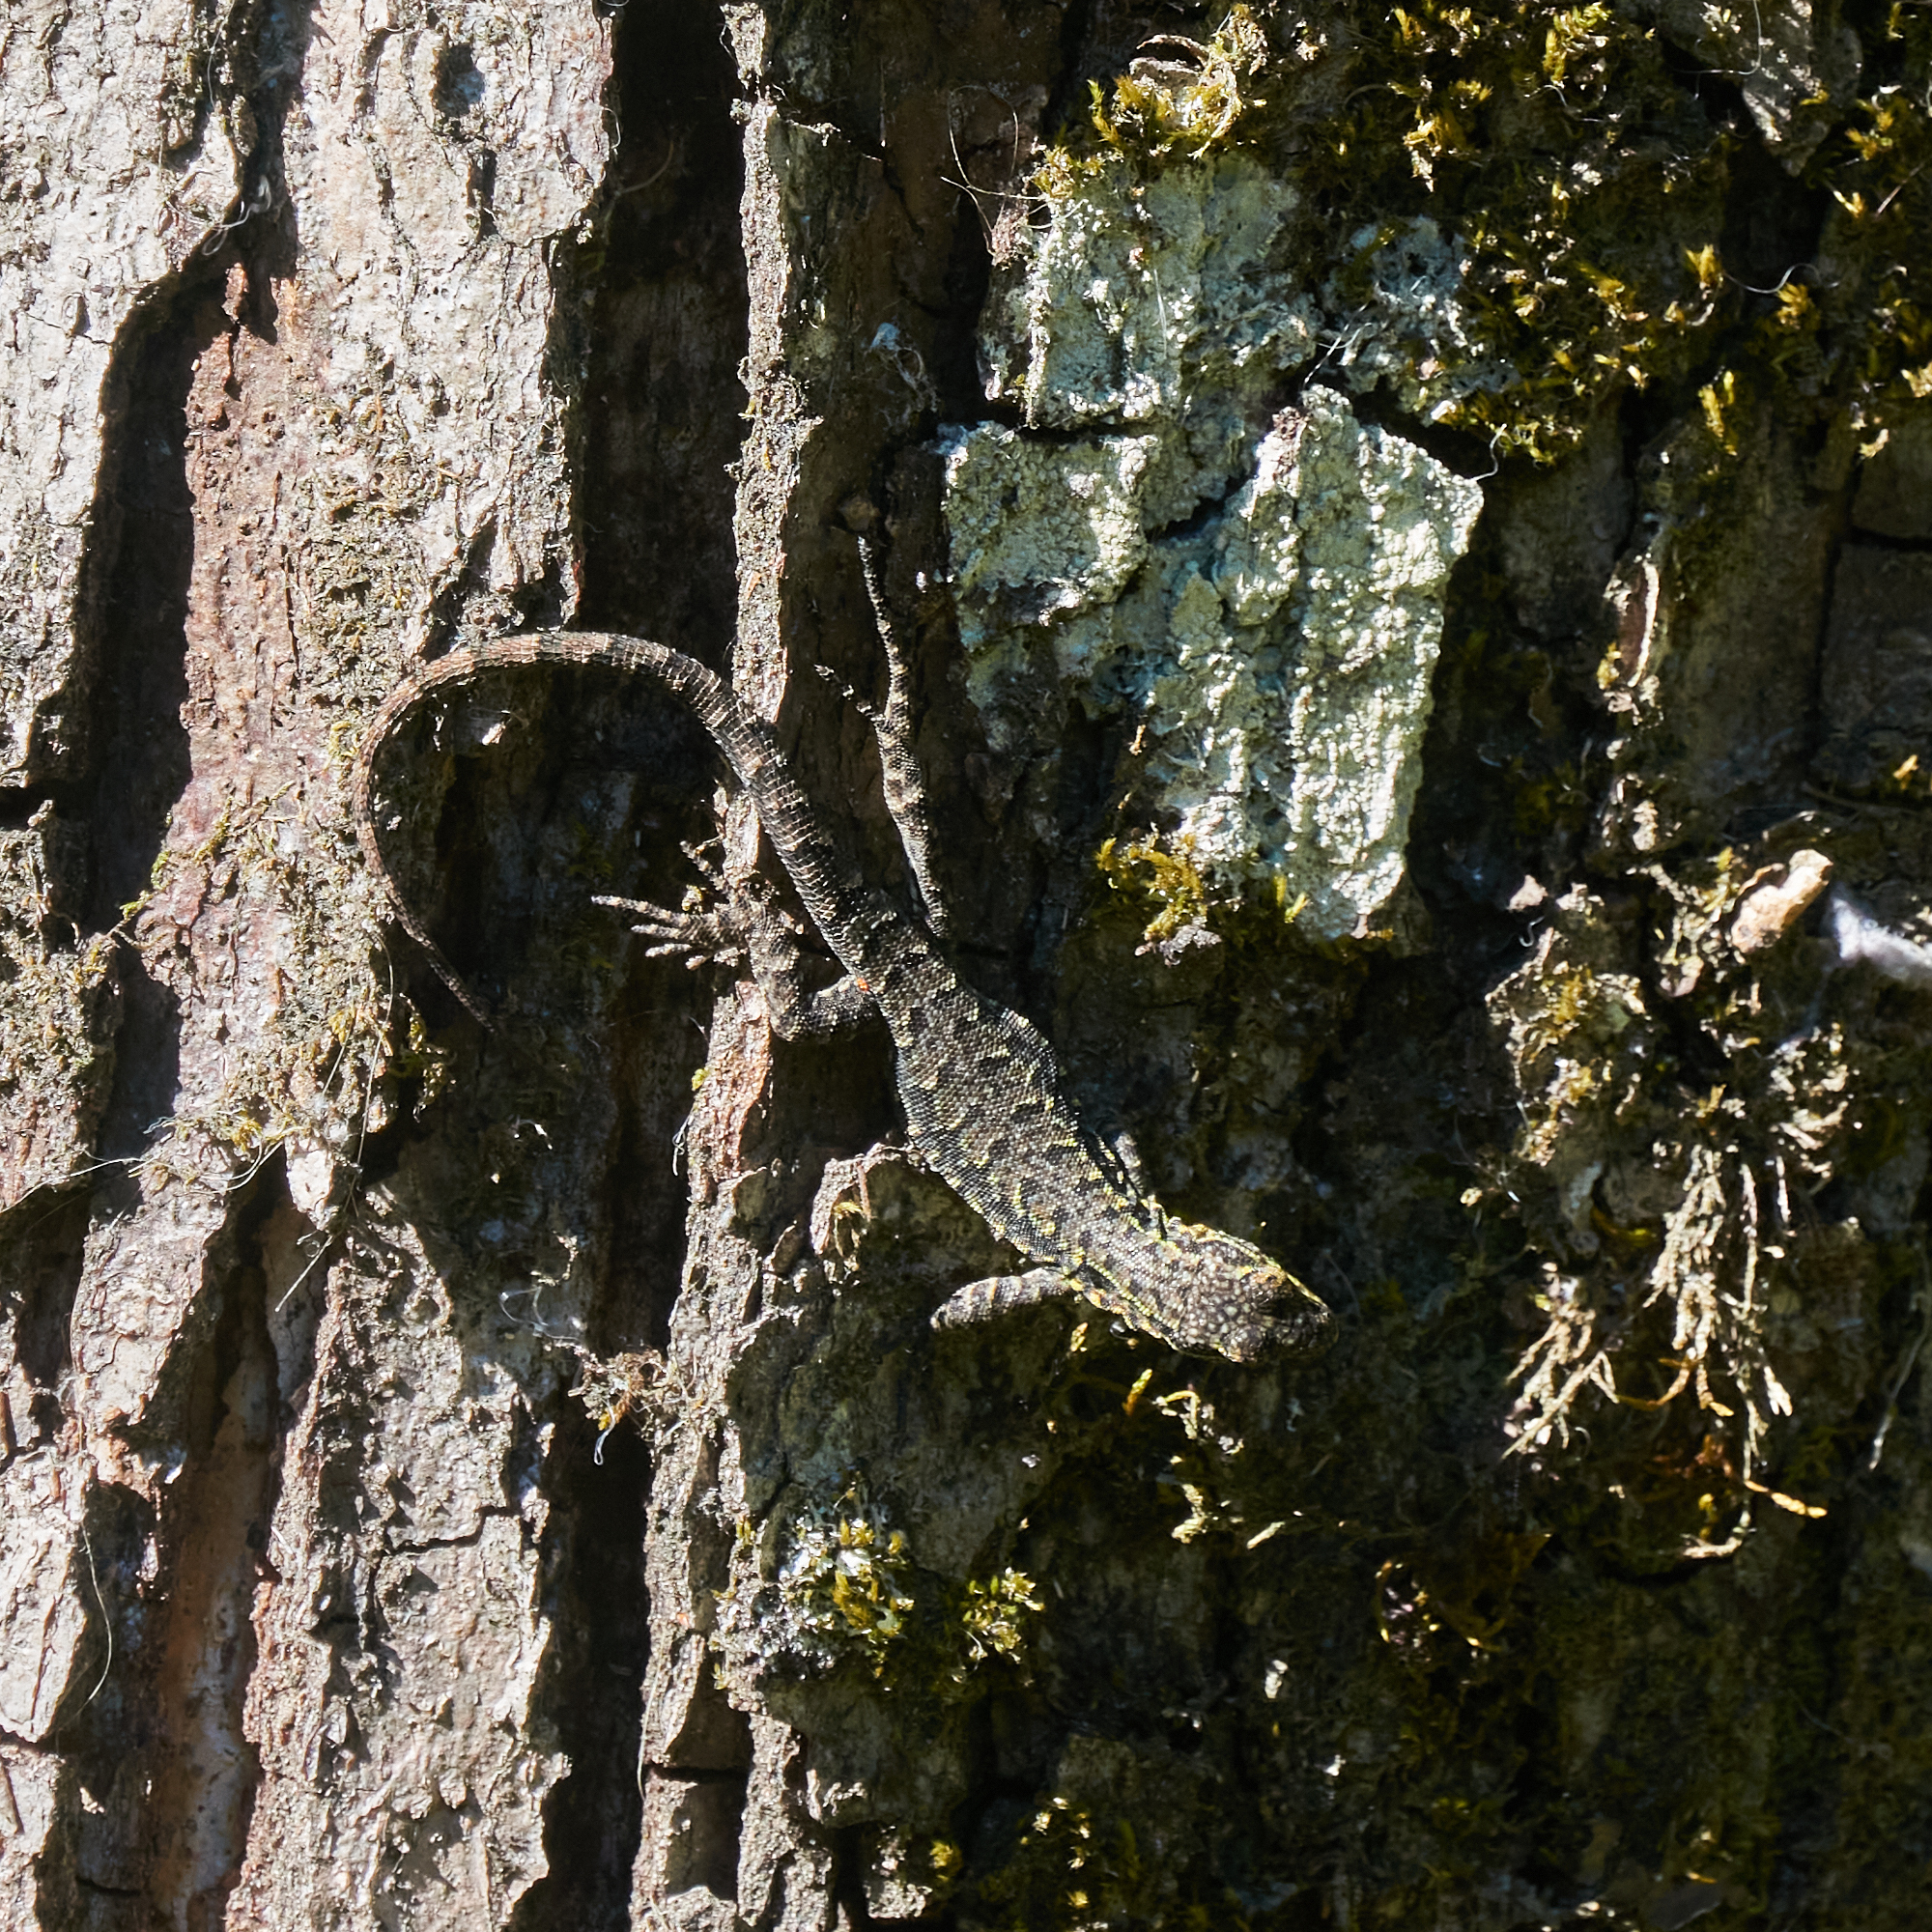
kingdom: Animalia
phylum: Chordata
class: Squamata
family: Liolaemidae
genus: Liolaemus
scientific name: Liolaemus tenuis
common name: Thin tree iguana
